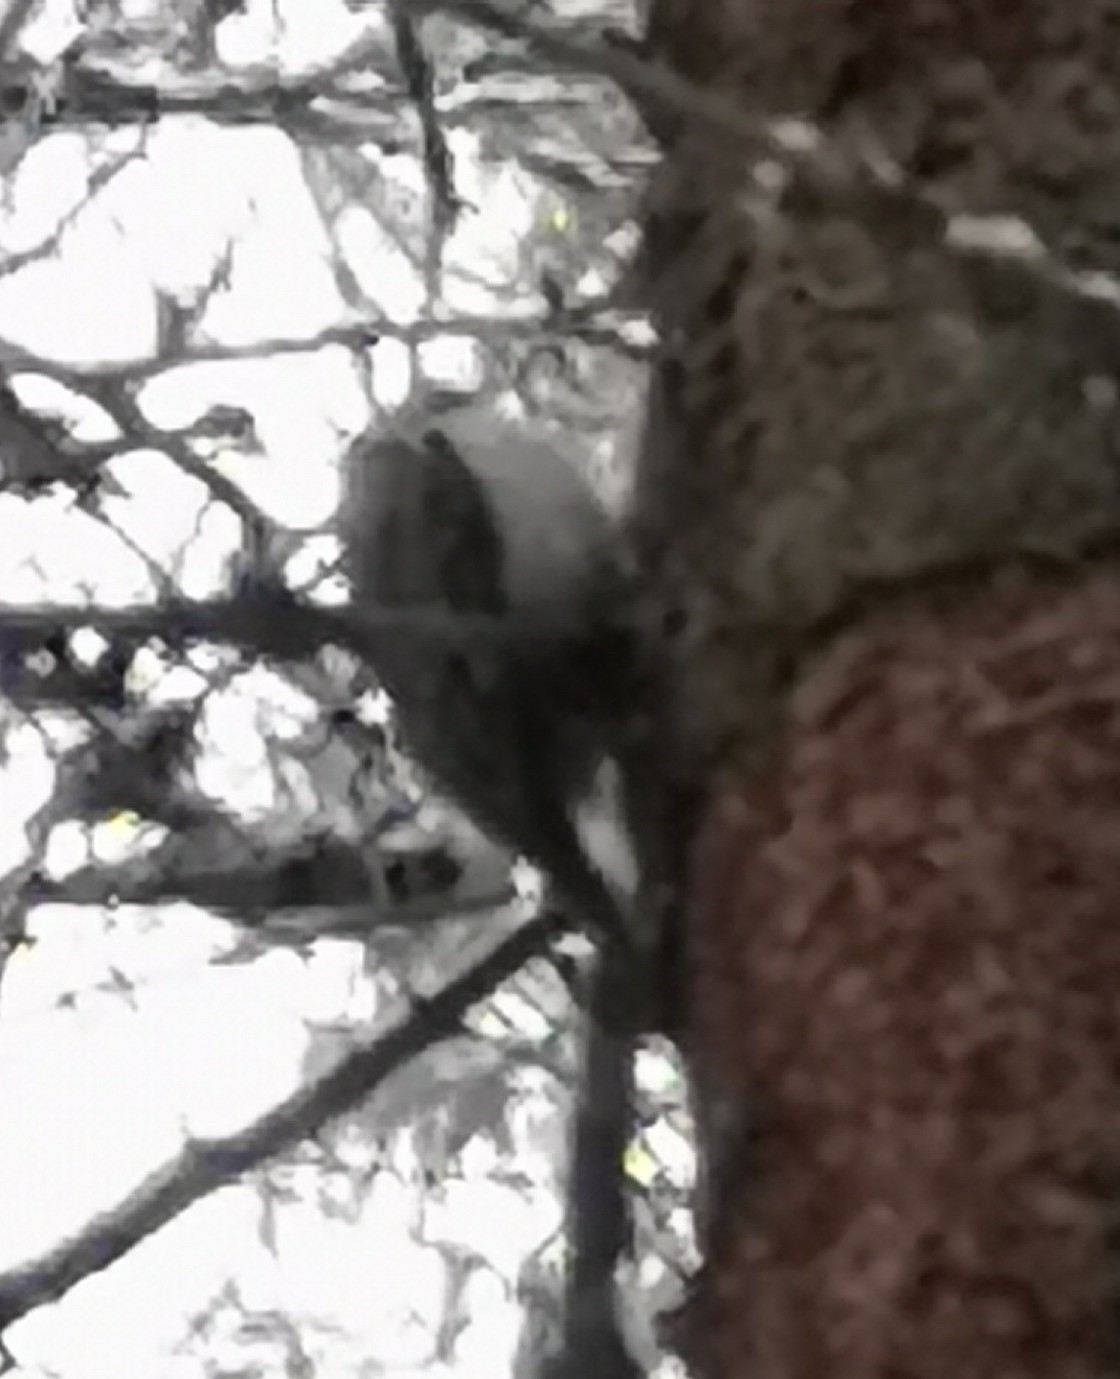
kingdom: Animalia
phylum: Chordata
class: Aves
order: Passeriformes
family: Certhiidae
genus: Certhia
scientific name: Certhia familiaris
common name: Eurasian treecreeper
